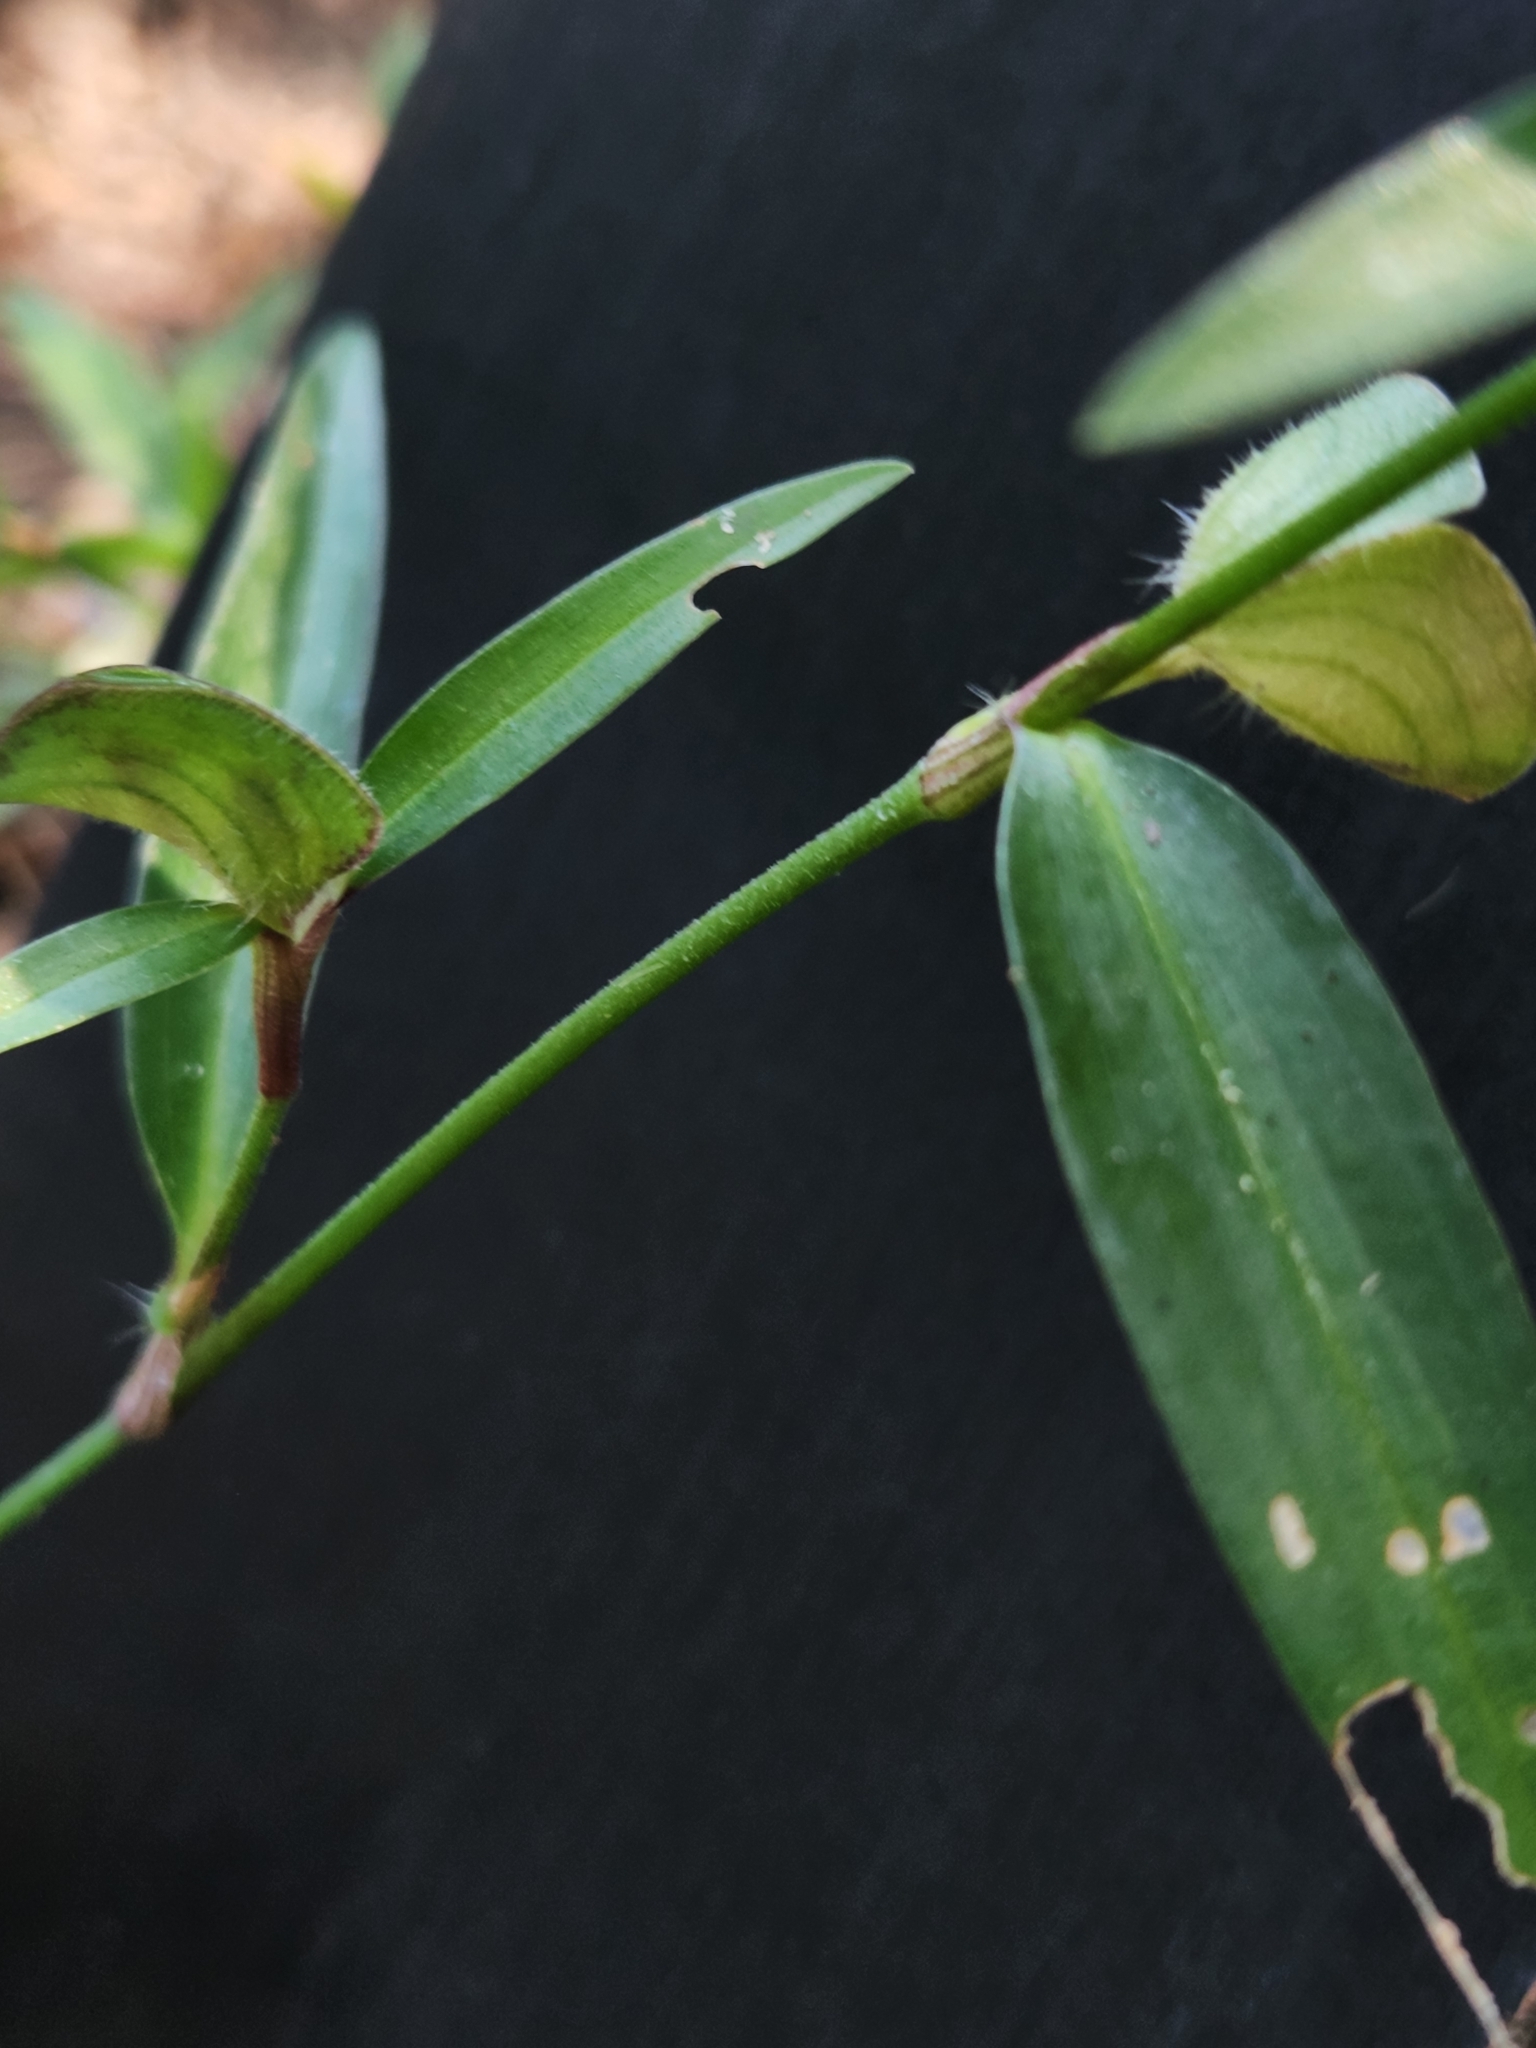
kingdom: Plantae
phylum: Tracheophyta
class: Liliopsida
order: Commelinales
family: Commelinaceae
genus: Commelina
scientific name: Commelina erecta
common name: Blousel blommetjie
